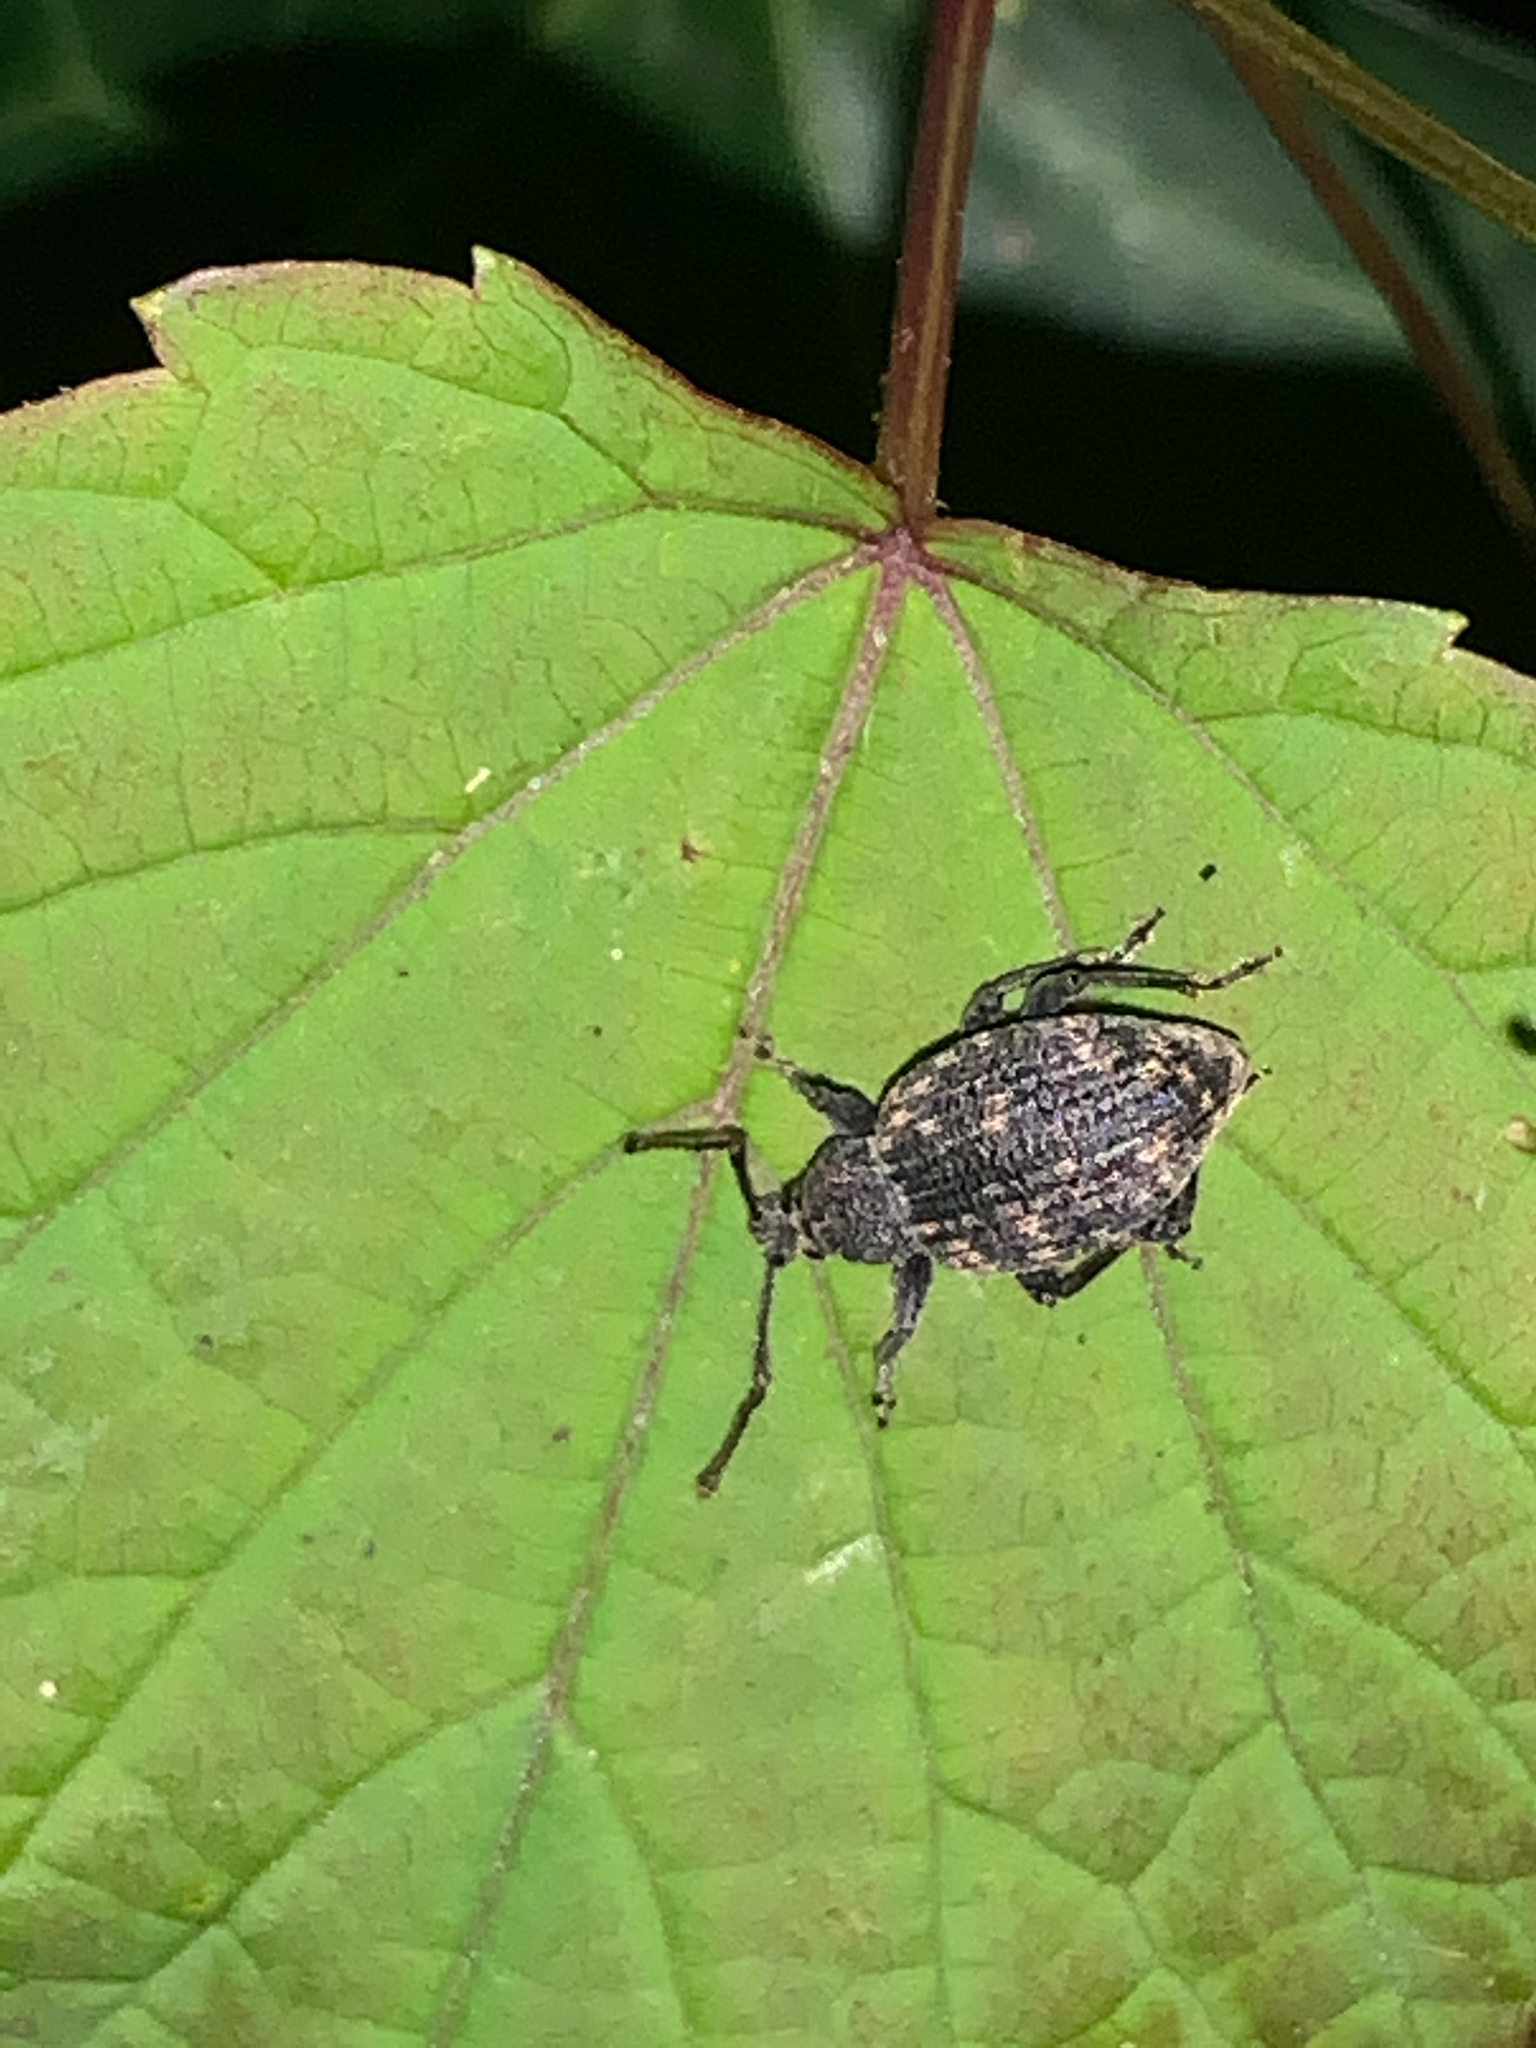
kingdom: Animalia
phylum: Arthropoda
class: Insecta
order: Coleoptera
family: Curculionidae
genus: Otiorhynchus
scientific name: Otiorhynchus sulcatus
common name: Black vine weevil
